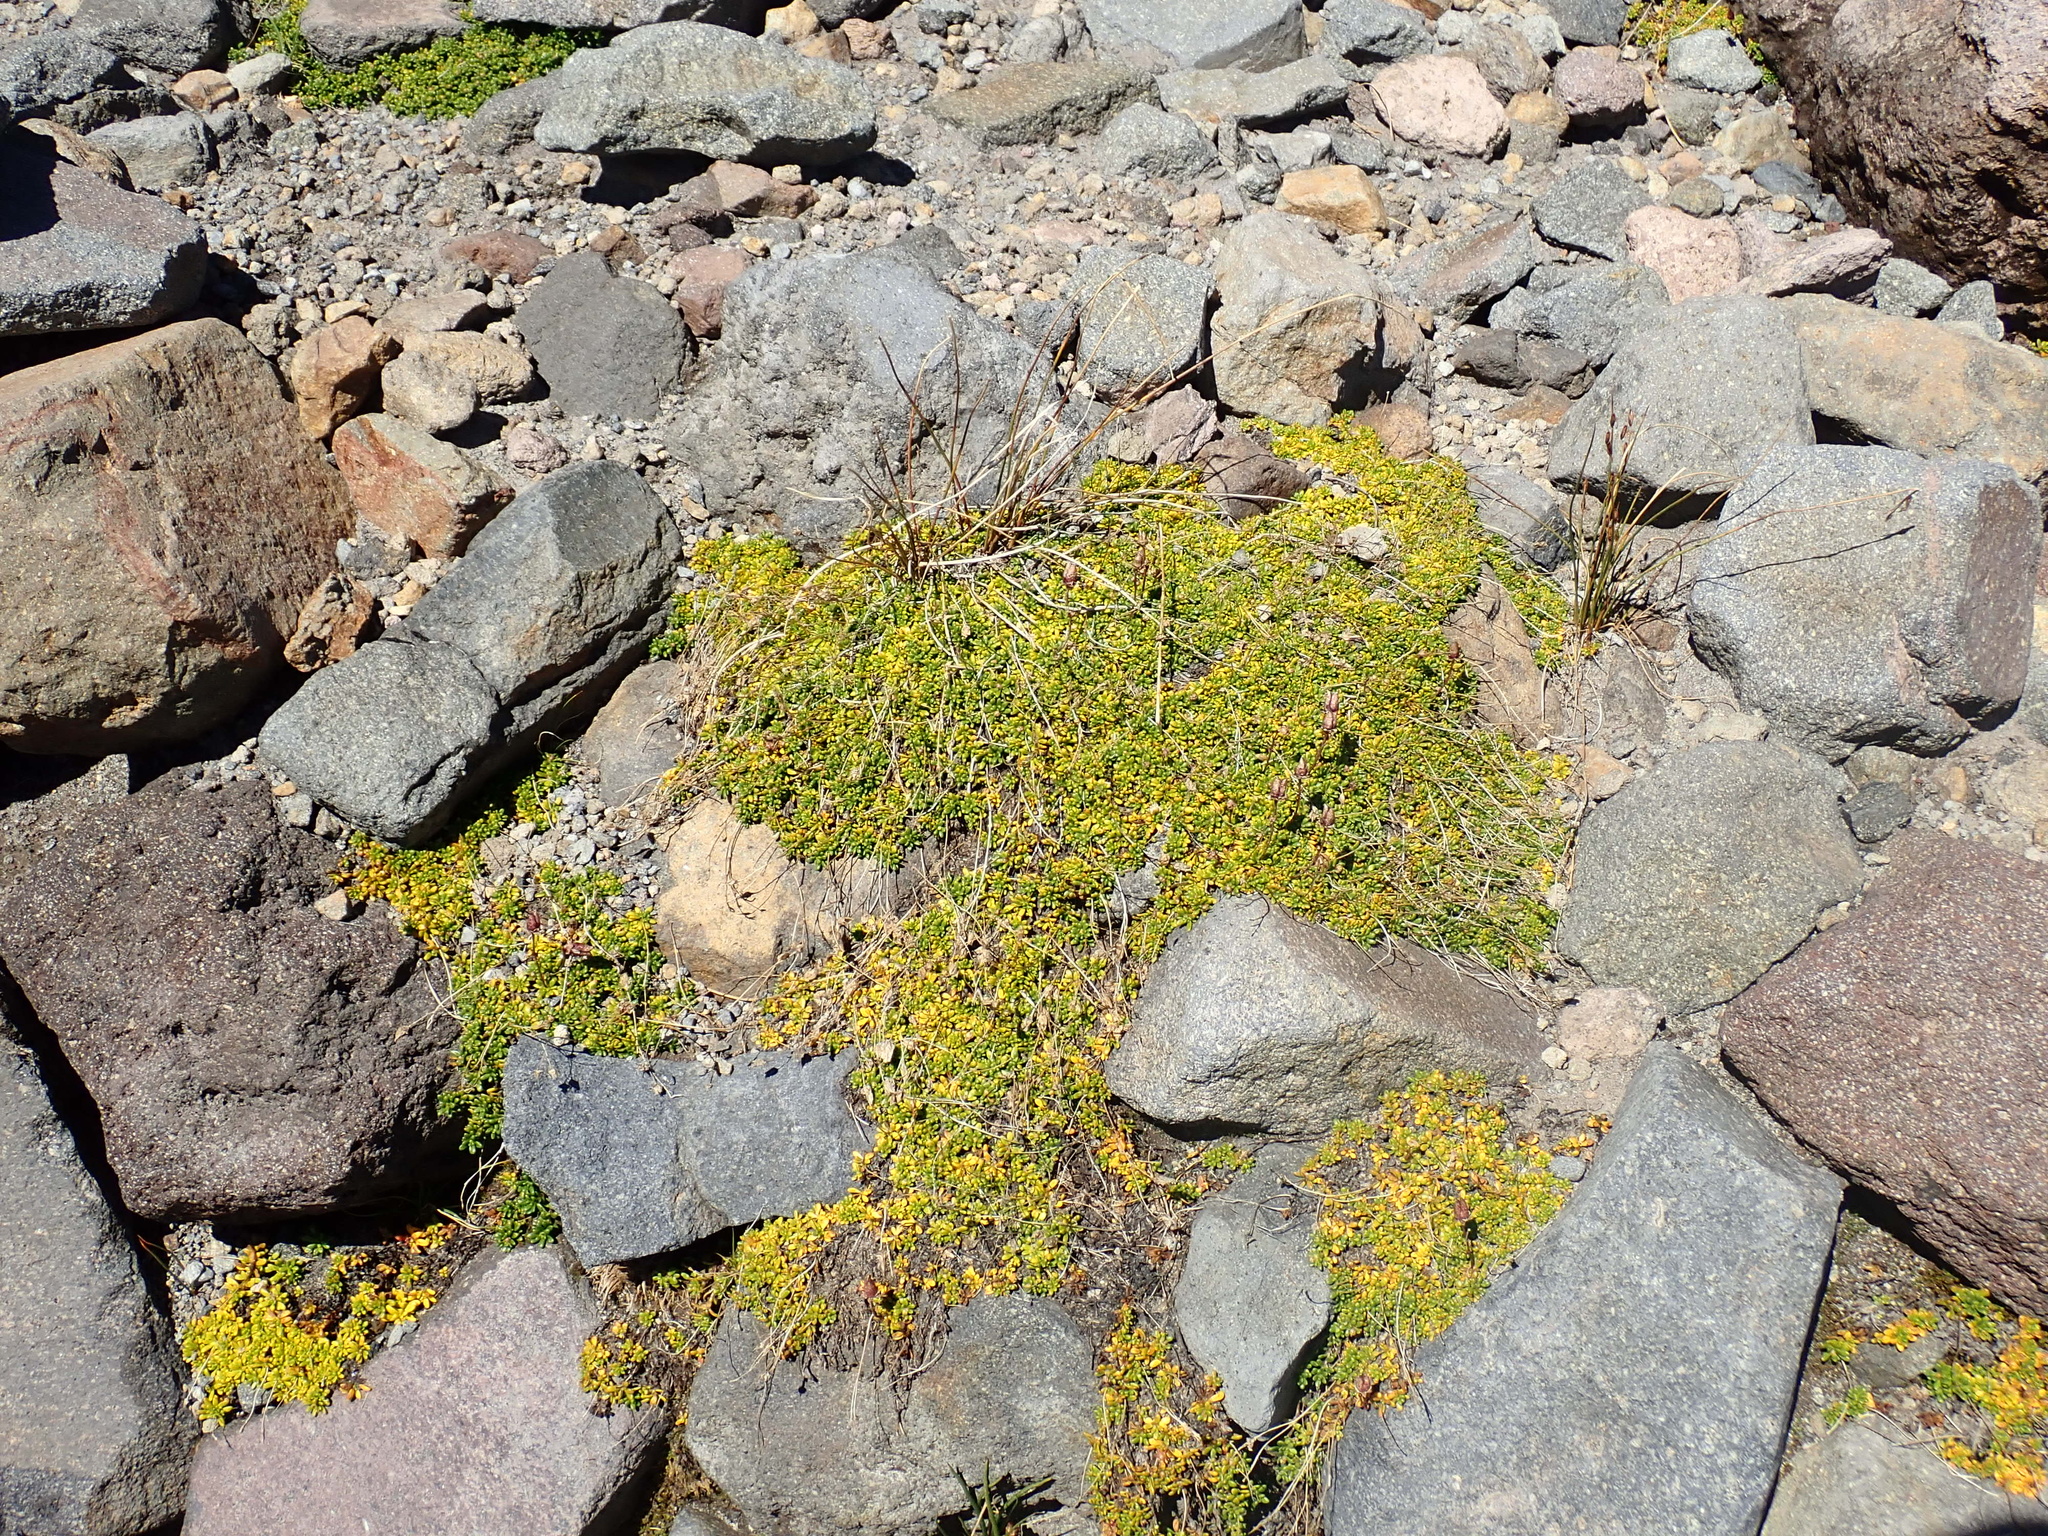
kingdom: Plantae
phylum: Tracheophyta
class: Magnoliopsida
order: Saxifragales
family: Saxifragaceae
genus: Micranthes
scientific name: Micranthes tolmiei
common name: Tolmie's saxifrage
